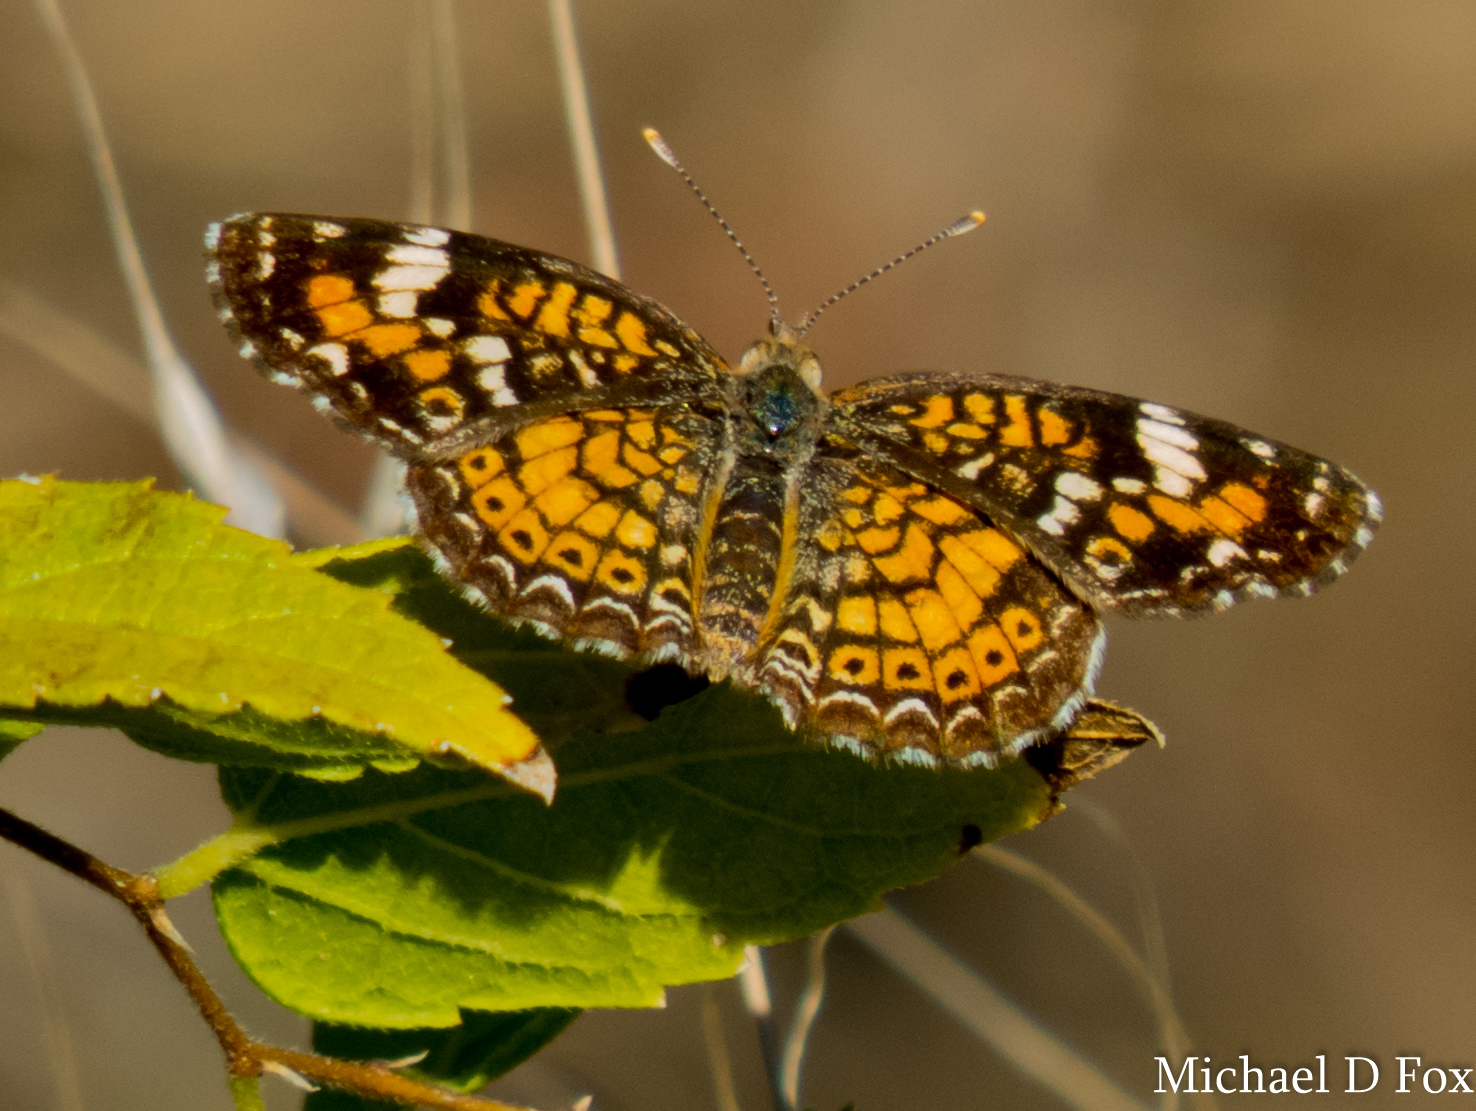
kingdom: Animalia
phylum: Arthropoda
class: Insecta
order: Lepidoptera
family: Nymphalidae
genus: Phyciodes
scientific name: Phyciodes phaon
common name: Phaon crescent
